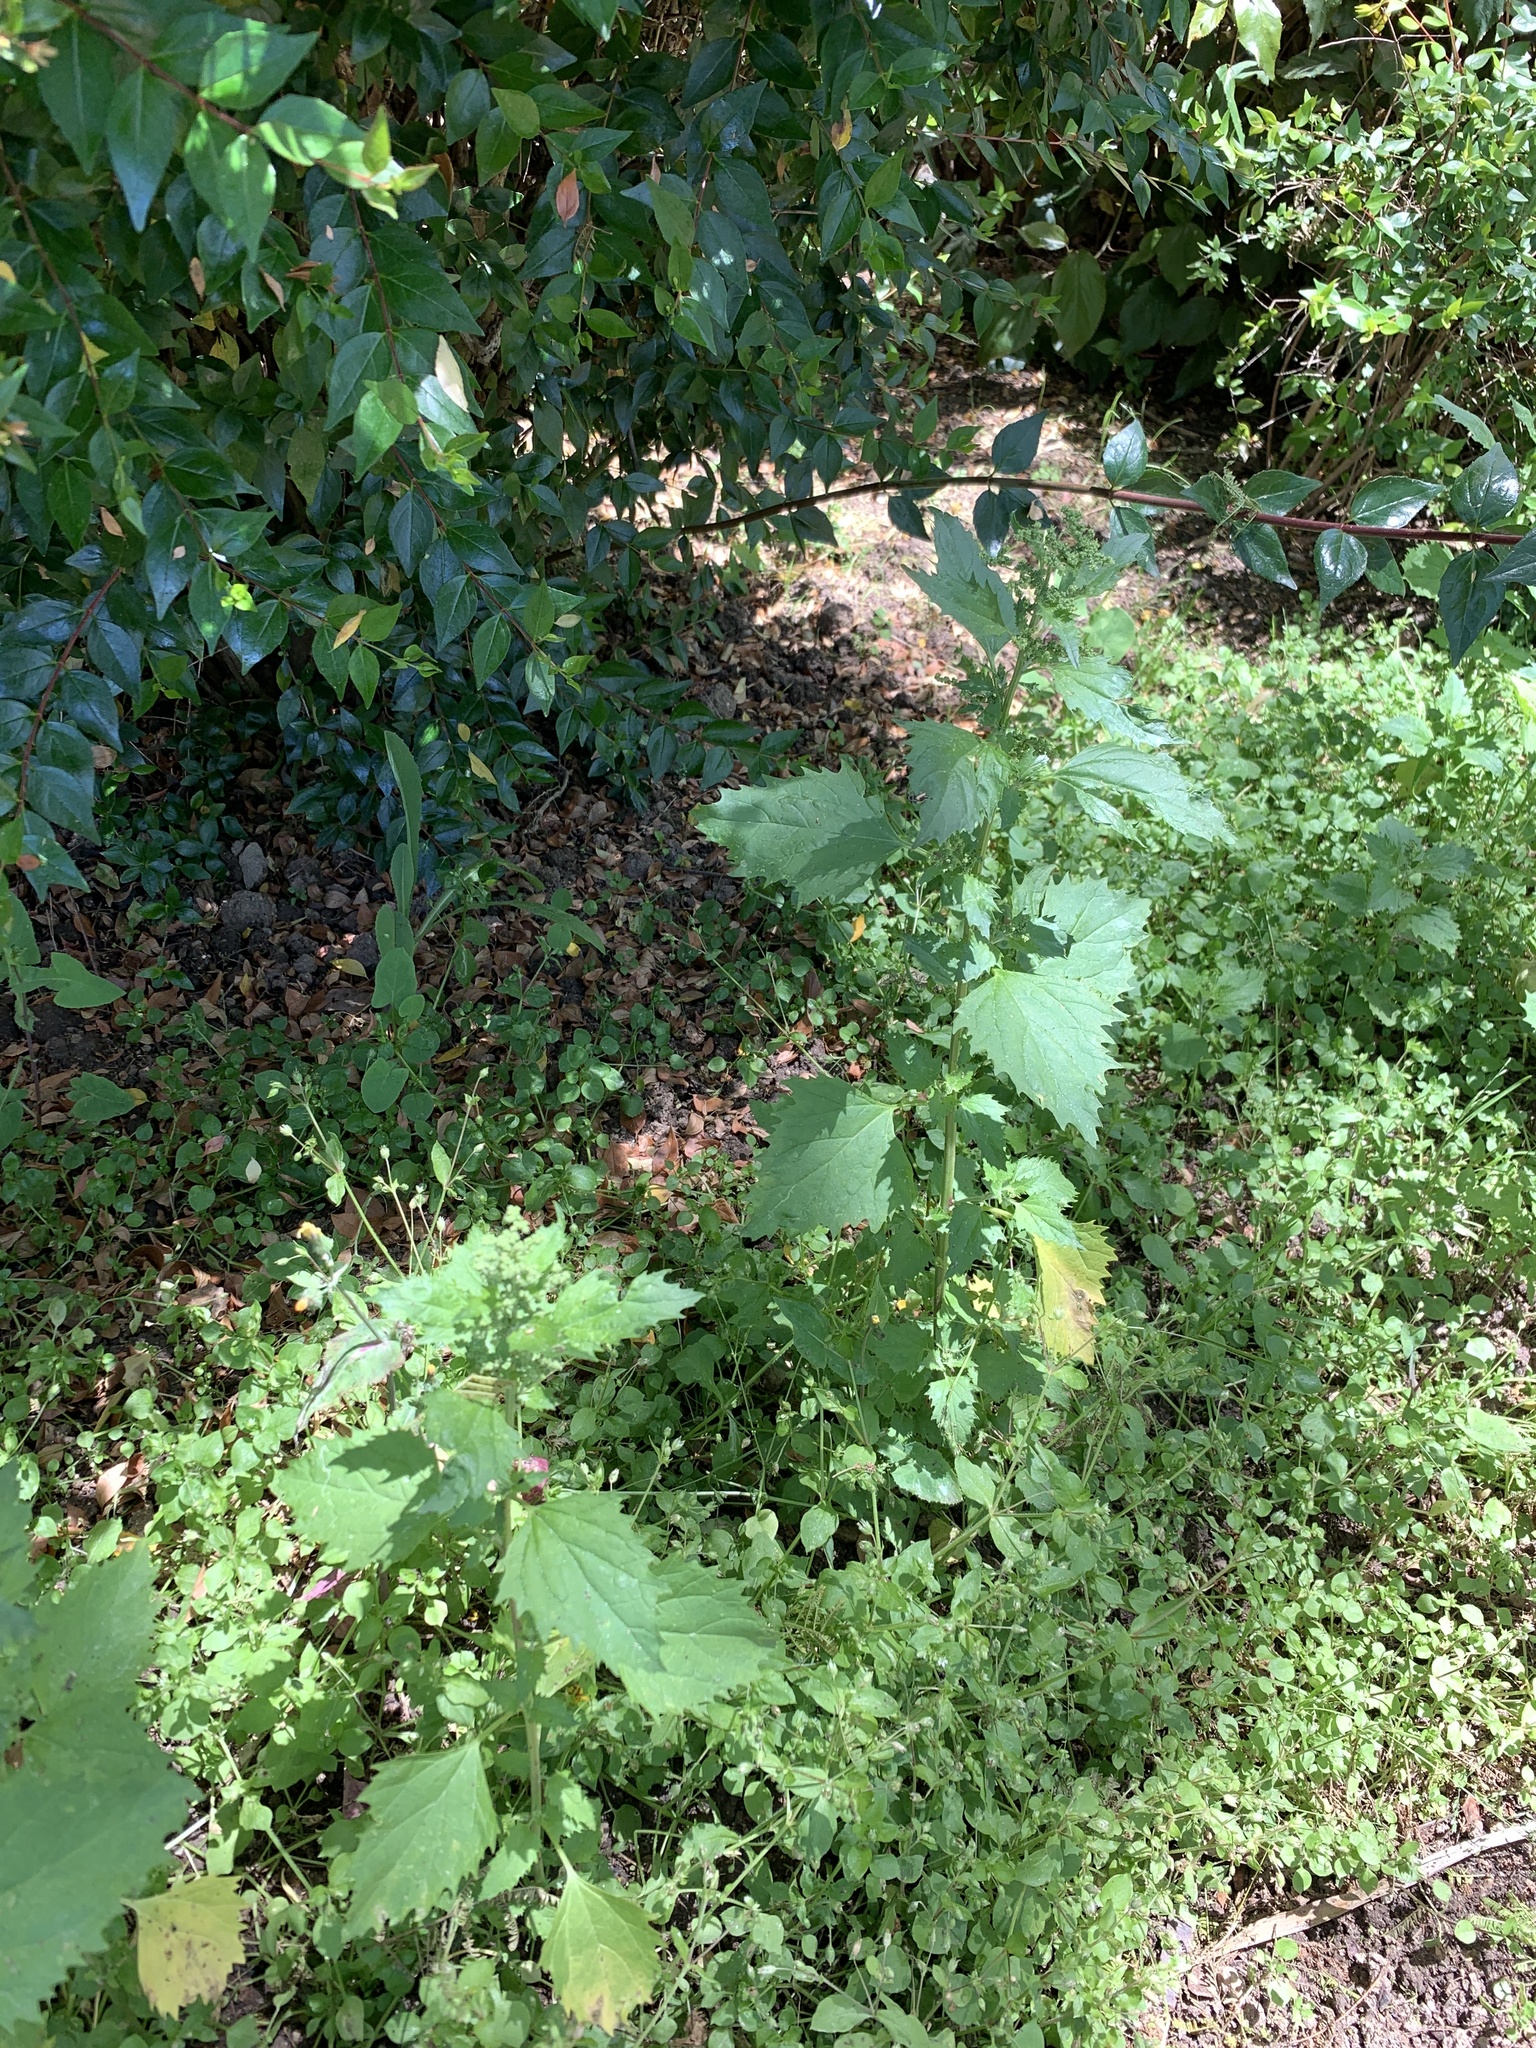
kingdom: Plantae
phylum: Tracheophyta
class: Magnoliopsida
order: Caryophyllales
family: Amaranthaceae
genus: Chenopodiastrum
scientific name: Chenopodiastrum murale
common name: Sowbane
